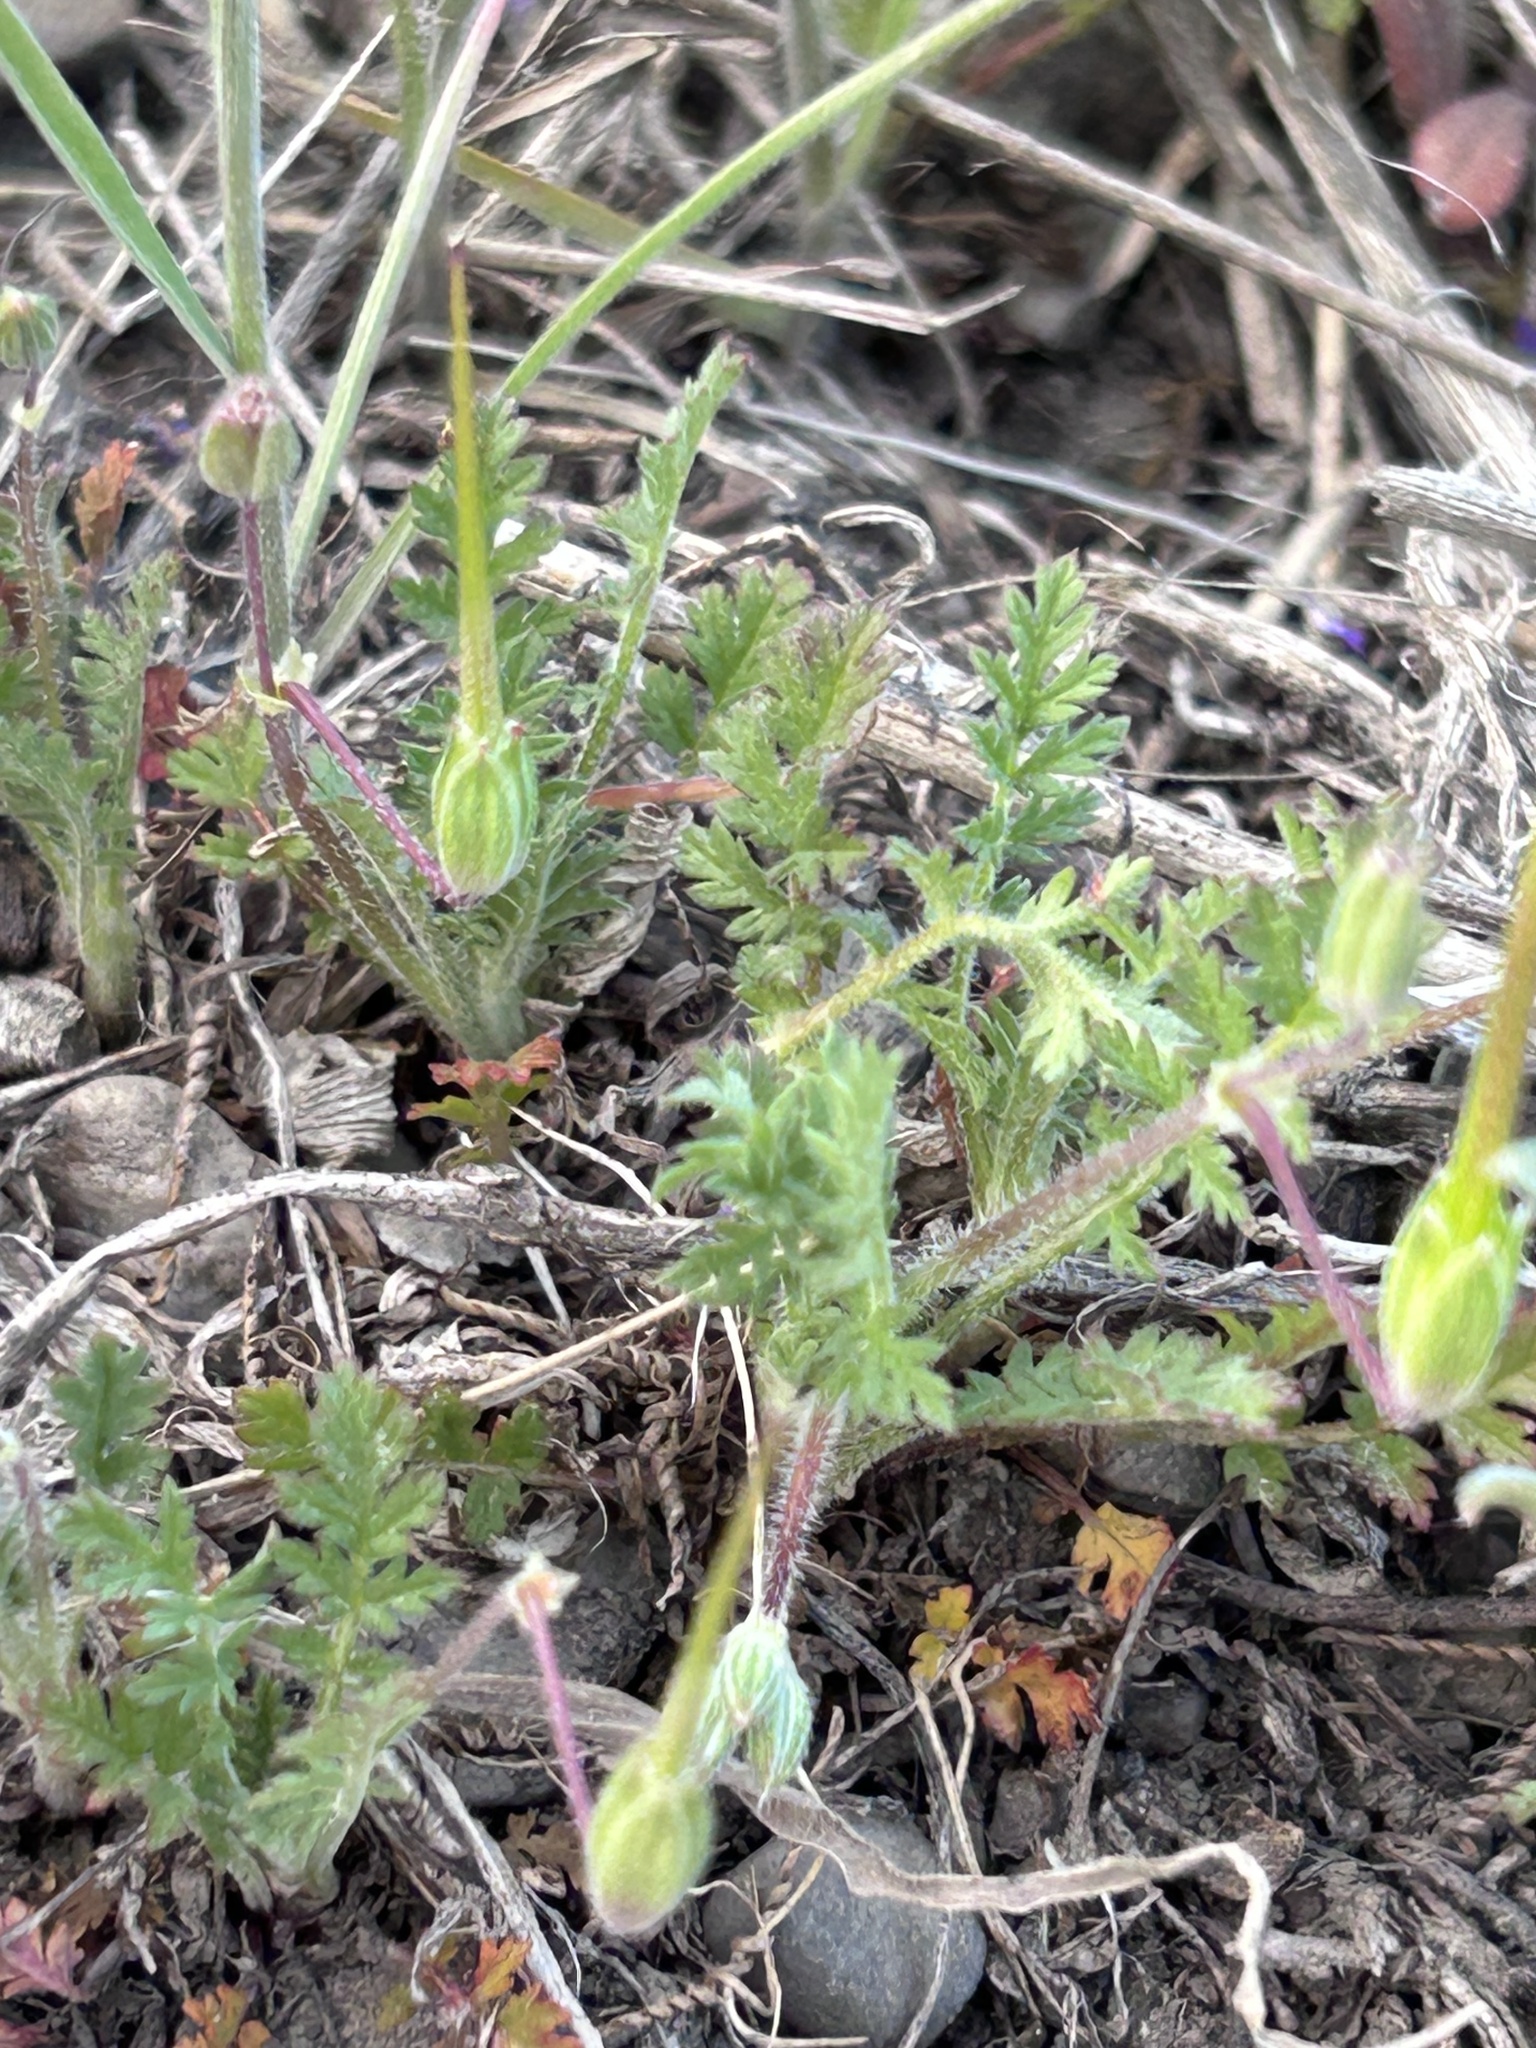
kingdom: Plantae
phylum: Tracheophyta
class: Magnoliopsida
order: Geraniales
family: Geraniaceae
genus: Erodium
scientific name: Erodium cicutarium
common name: Common stork's-bill
